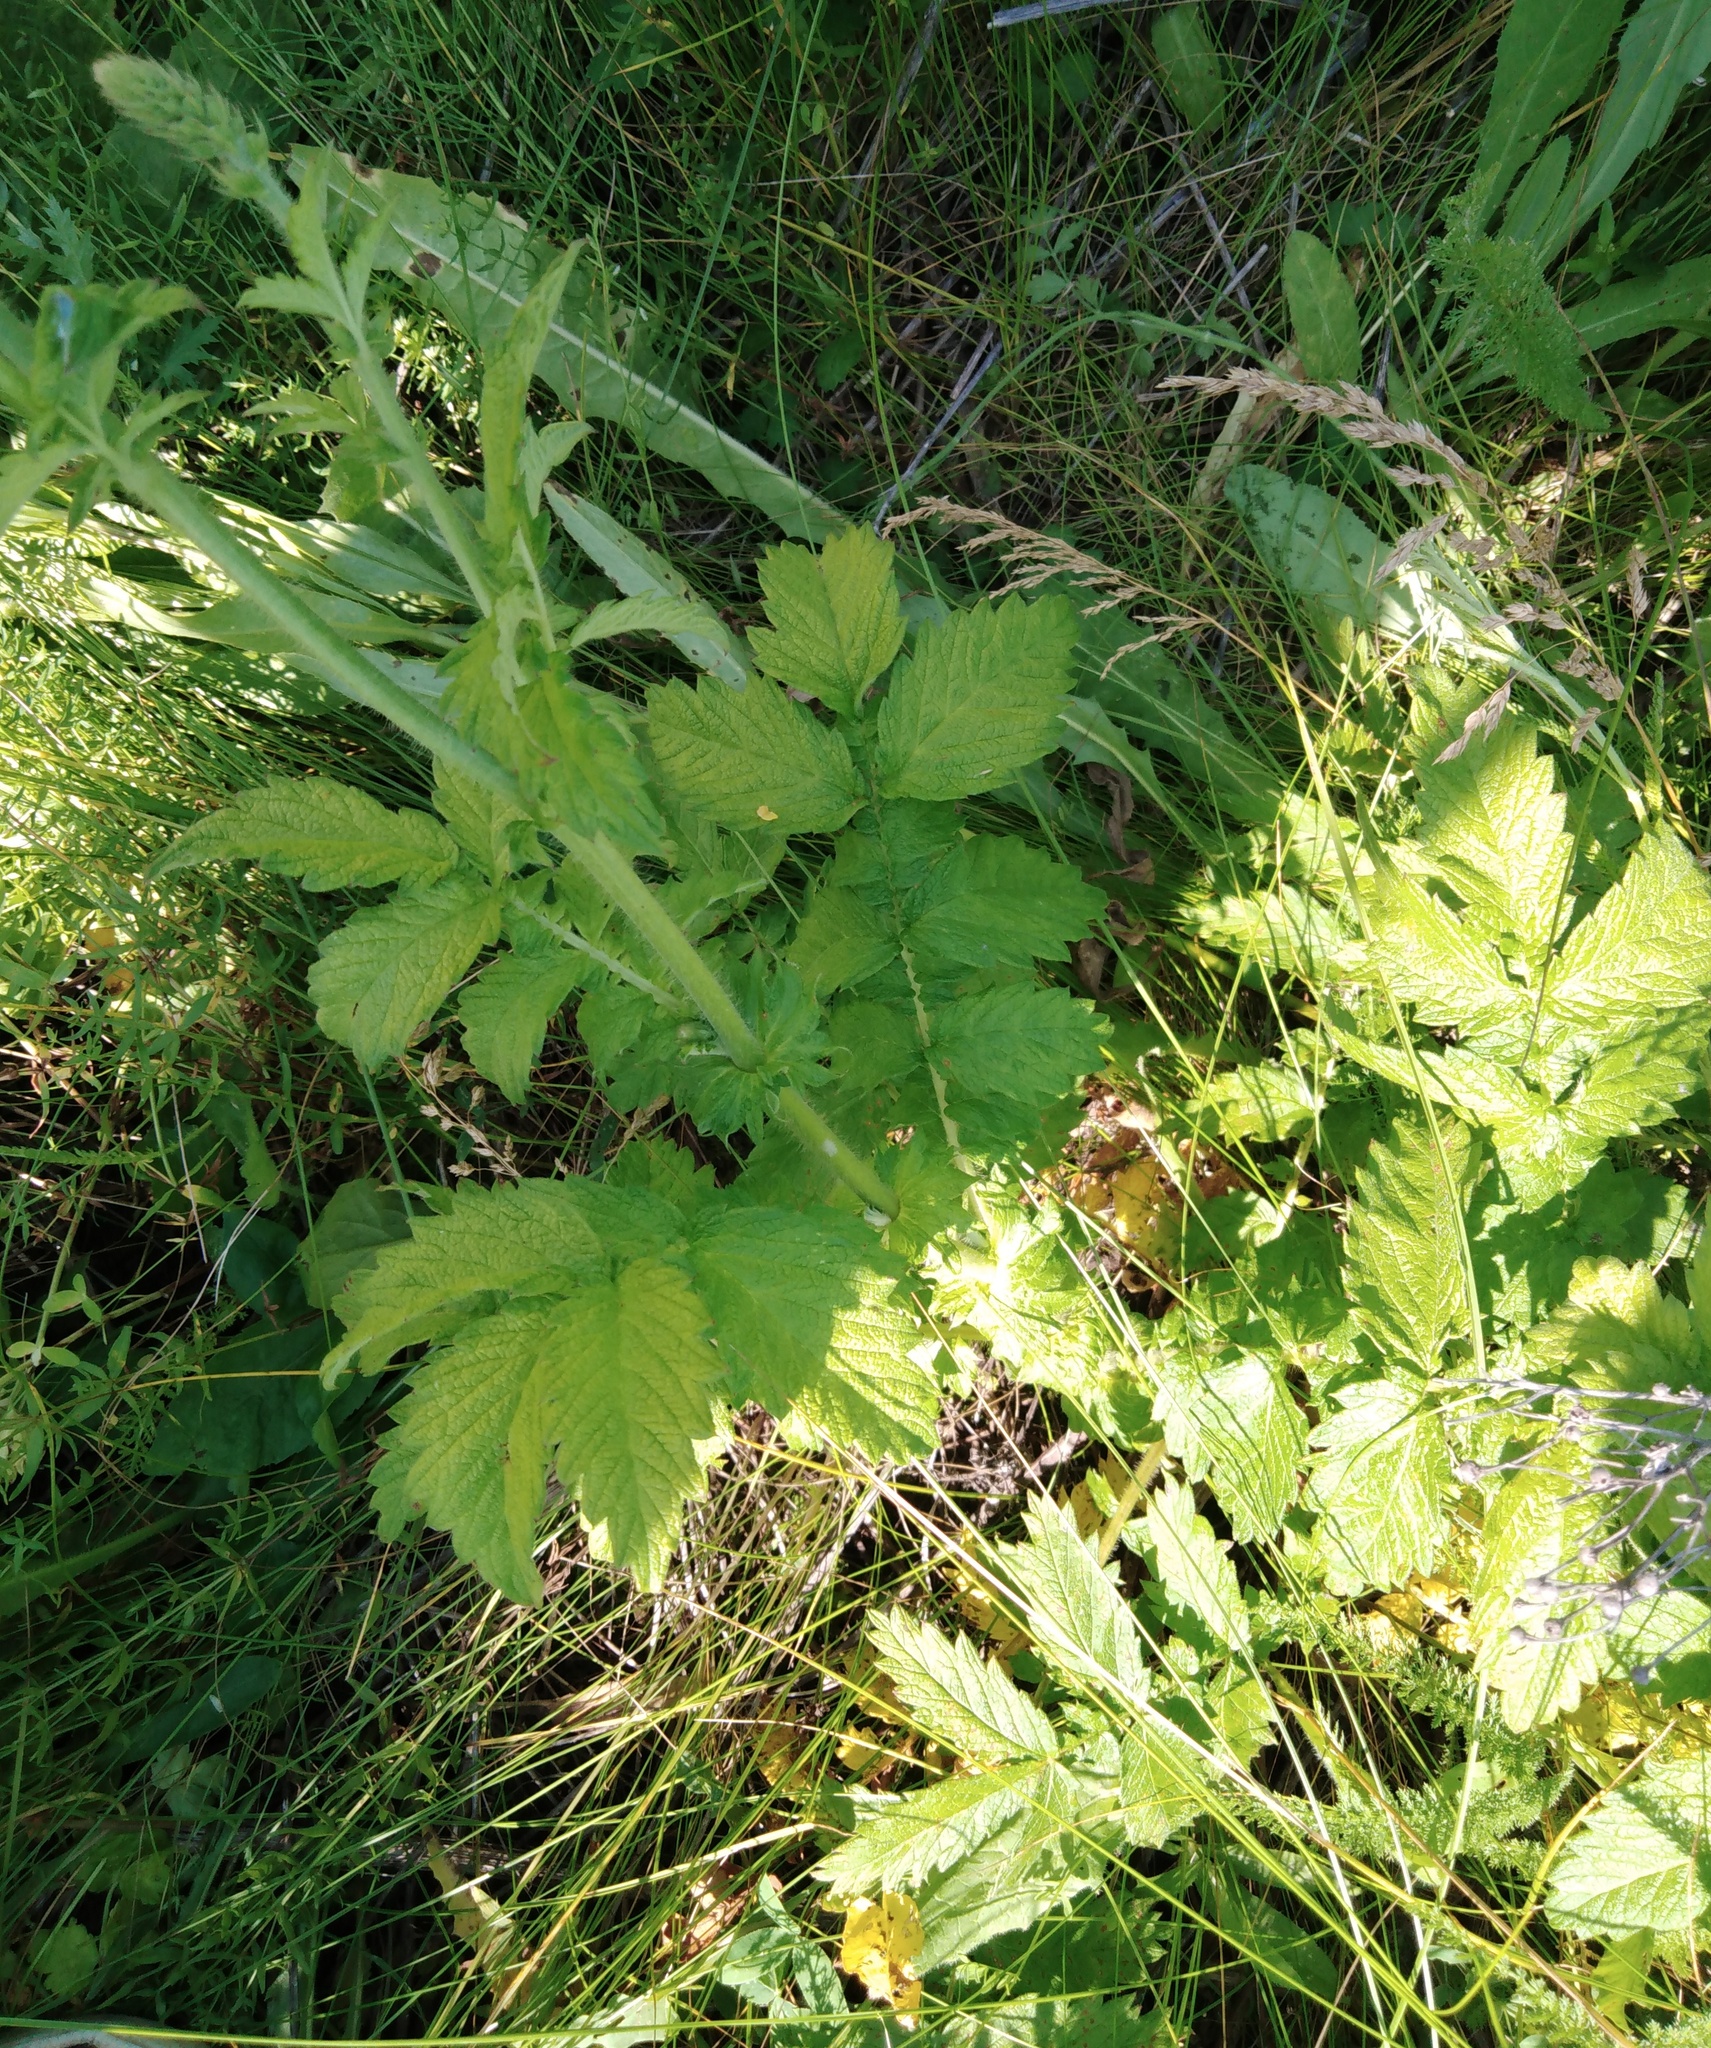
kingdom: Plantae
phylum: Tracheophyta
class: Magnoliopsida
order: Rosales
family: Rosaceae
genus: Agrimonia
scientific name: Agrimonia eupatoria
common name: Agrimony
